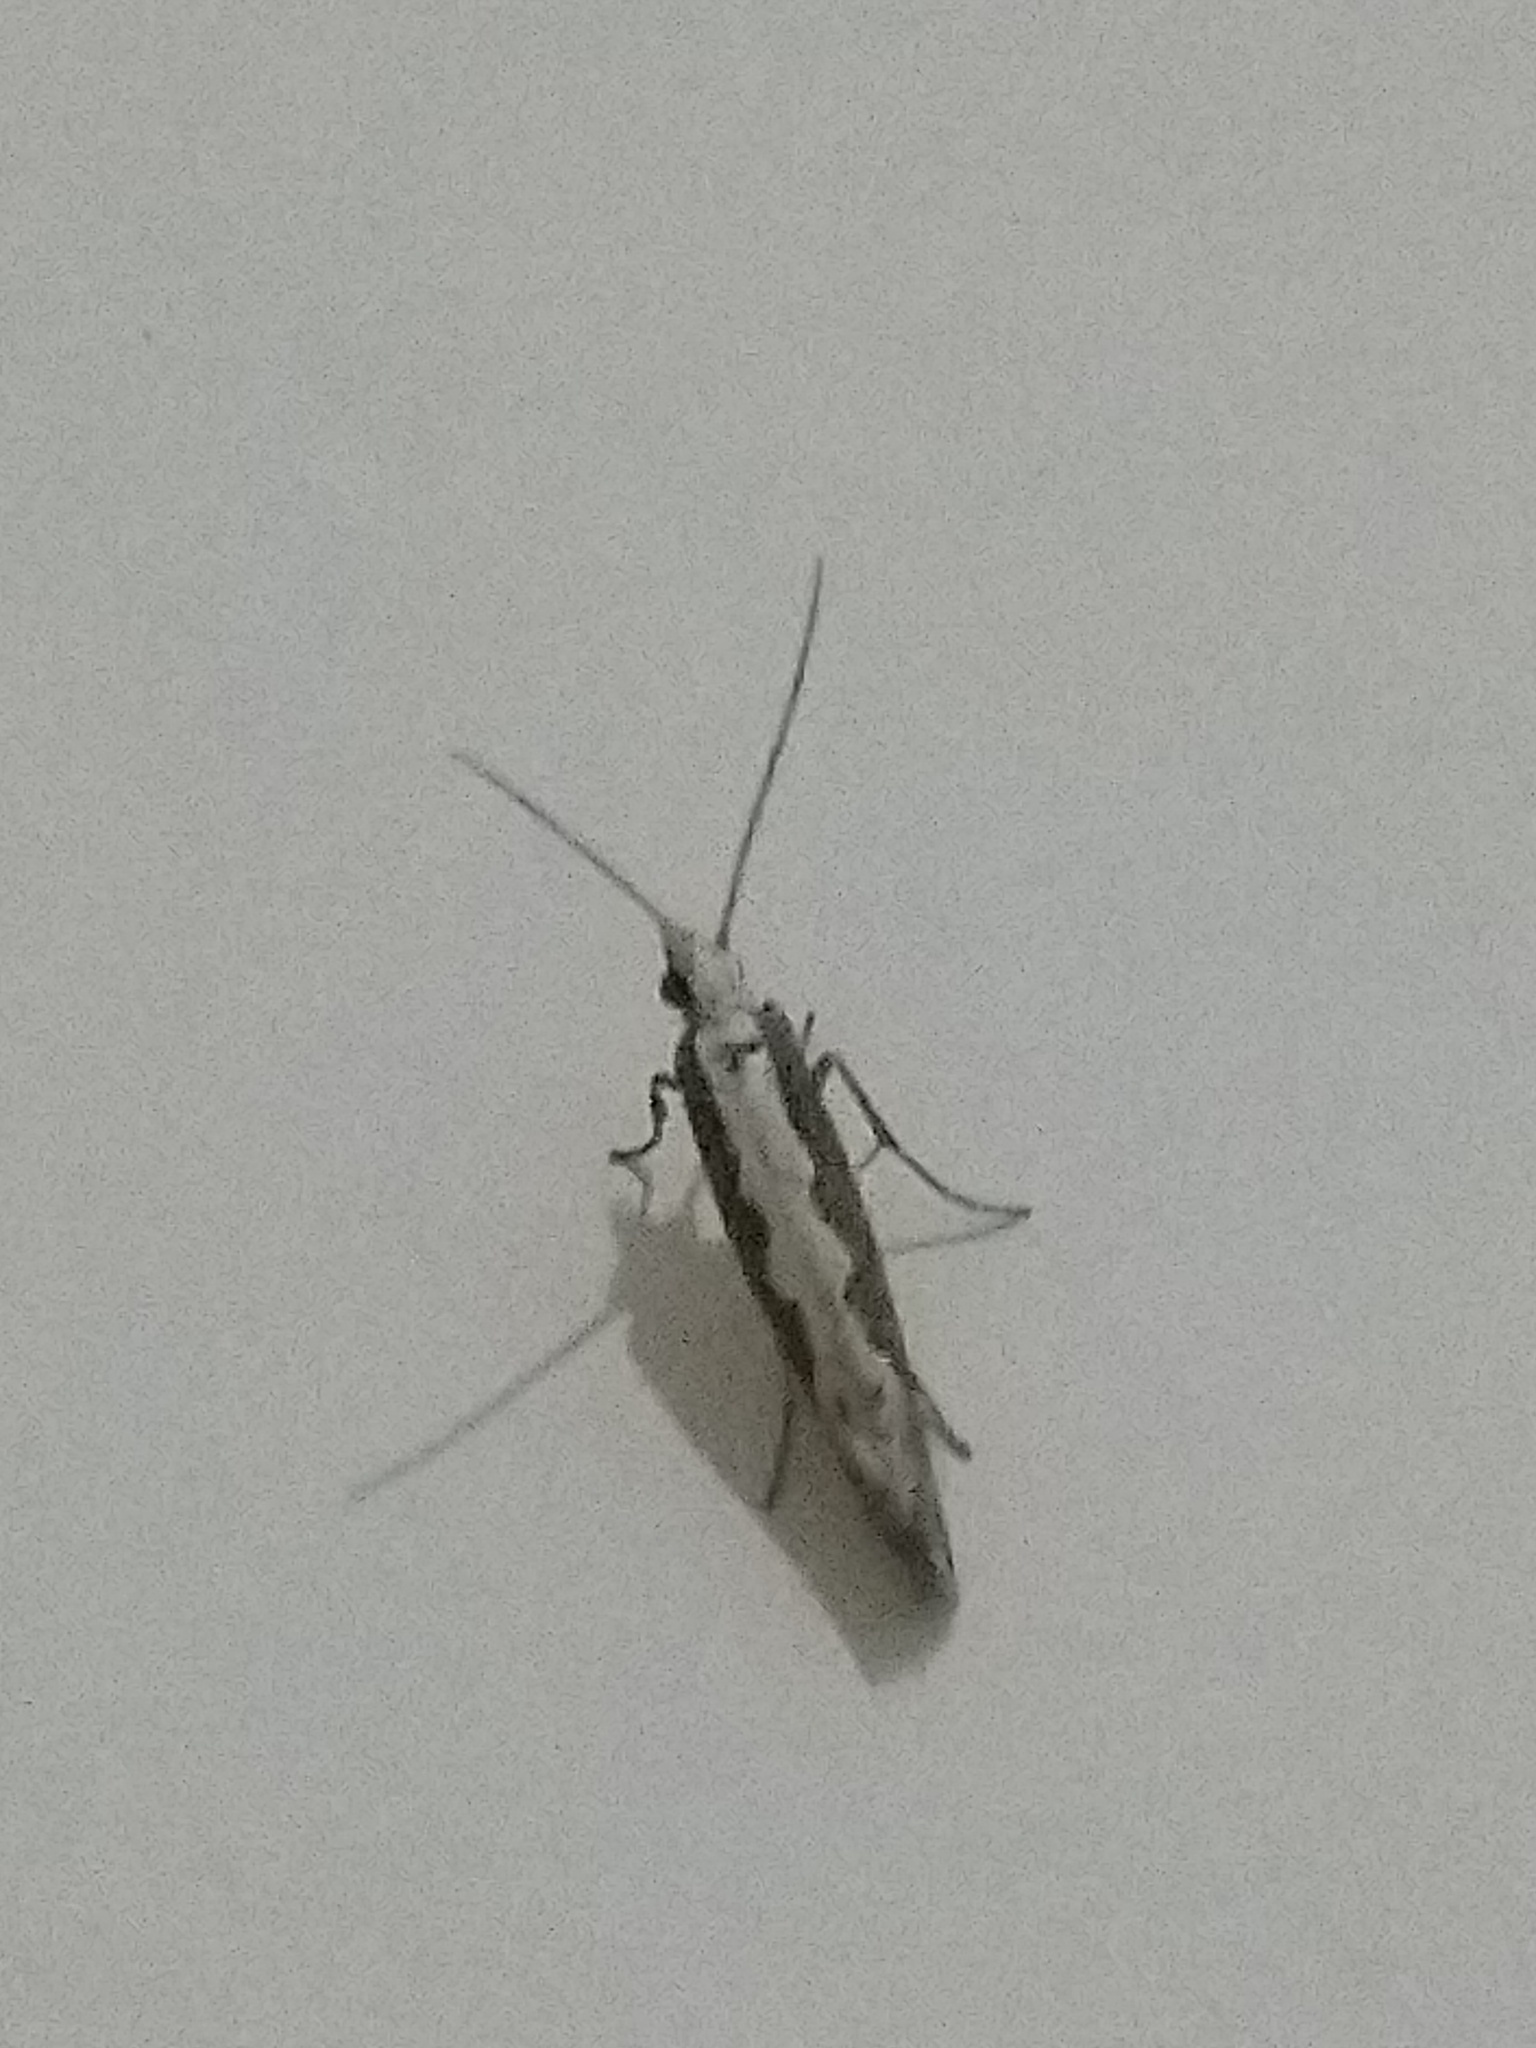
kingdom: Animalia
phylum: Arthropoda
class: Insecta
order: Lepidoptera
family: Plutellidae
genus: Plutella
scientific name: Plutella xylostella
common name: Diamond-back moth
